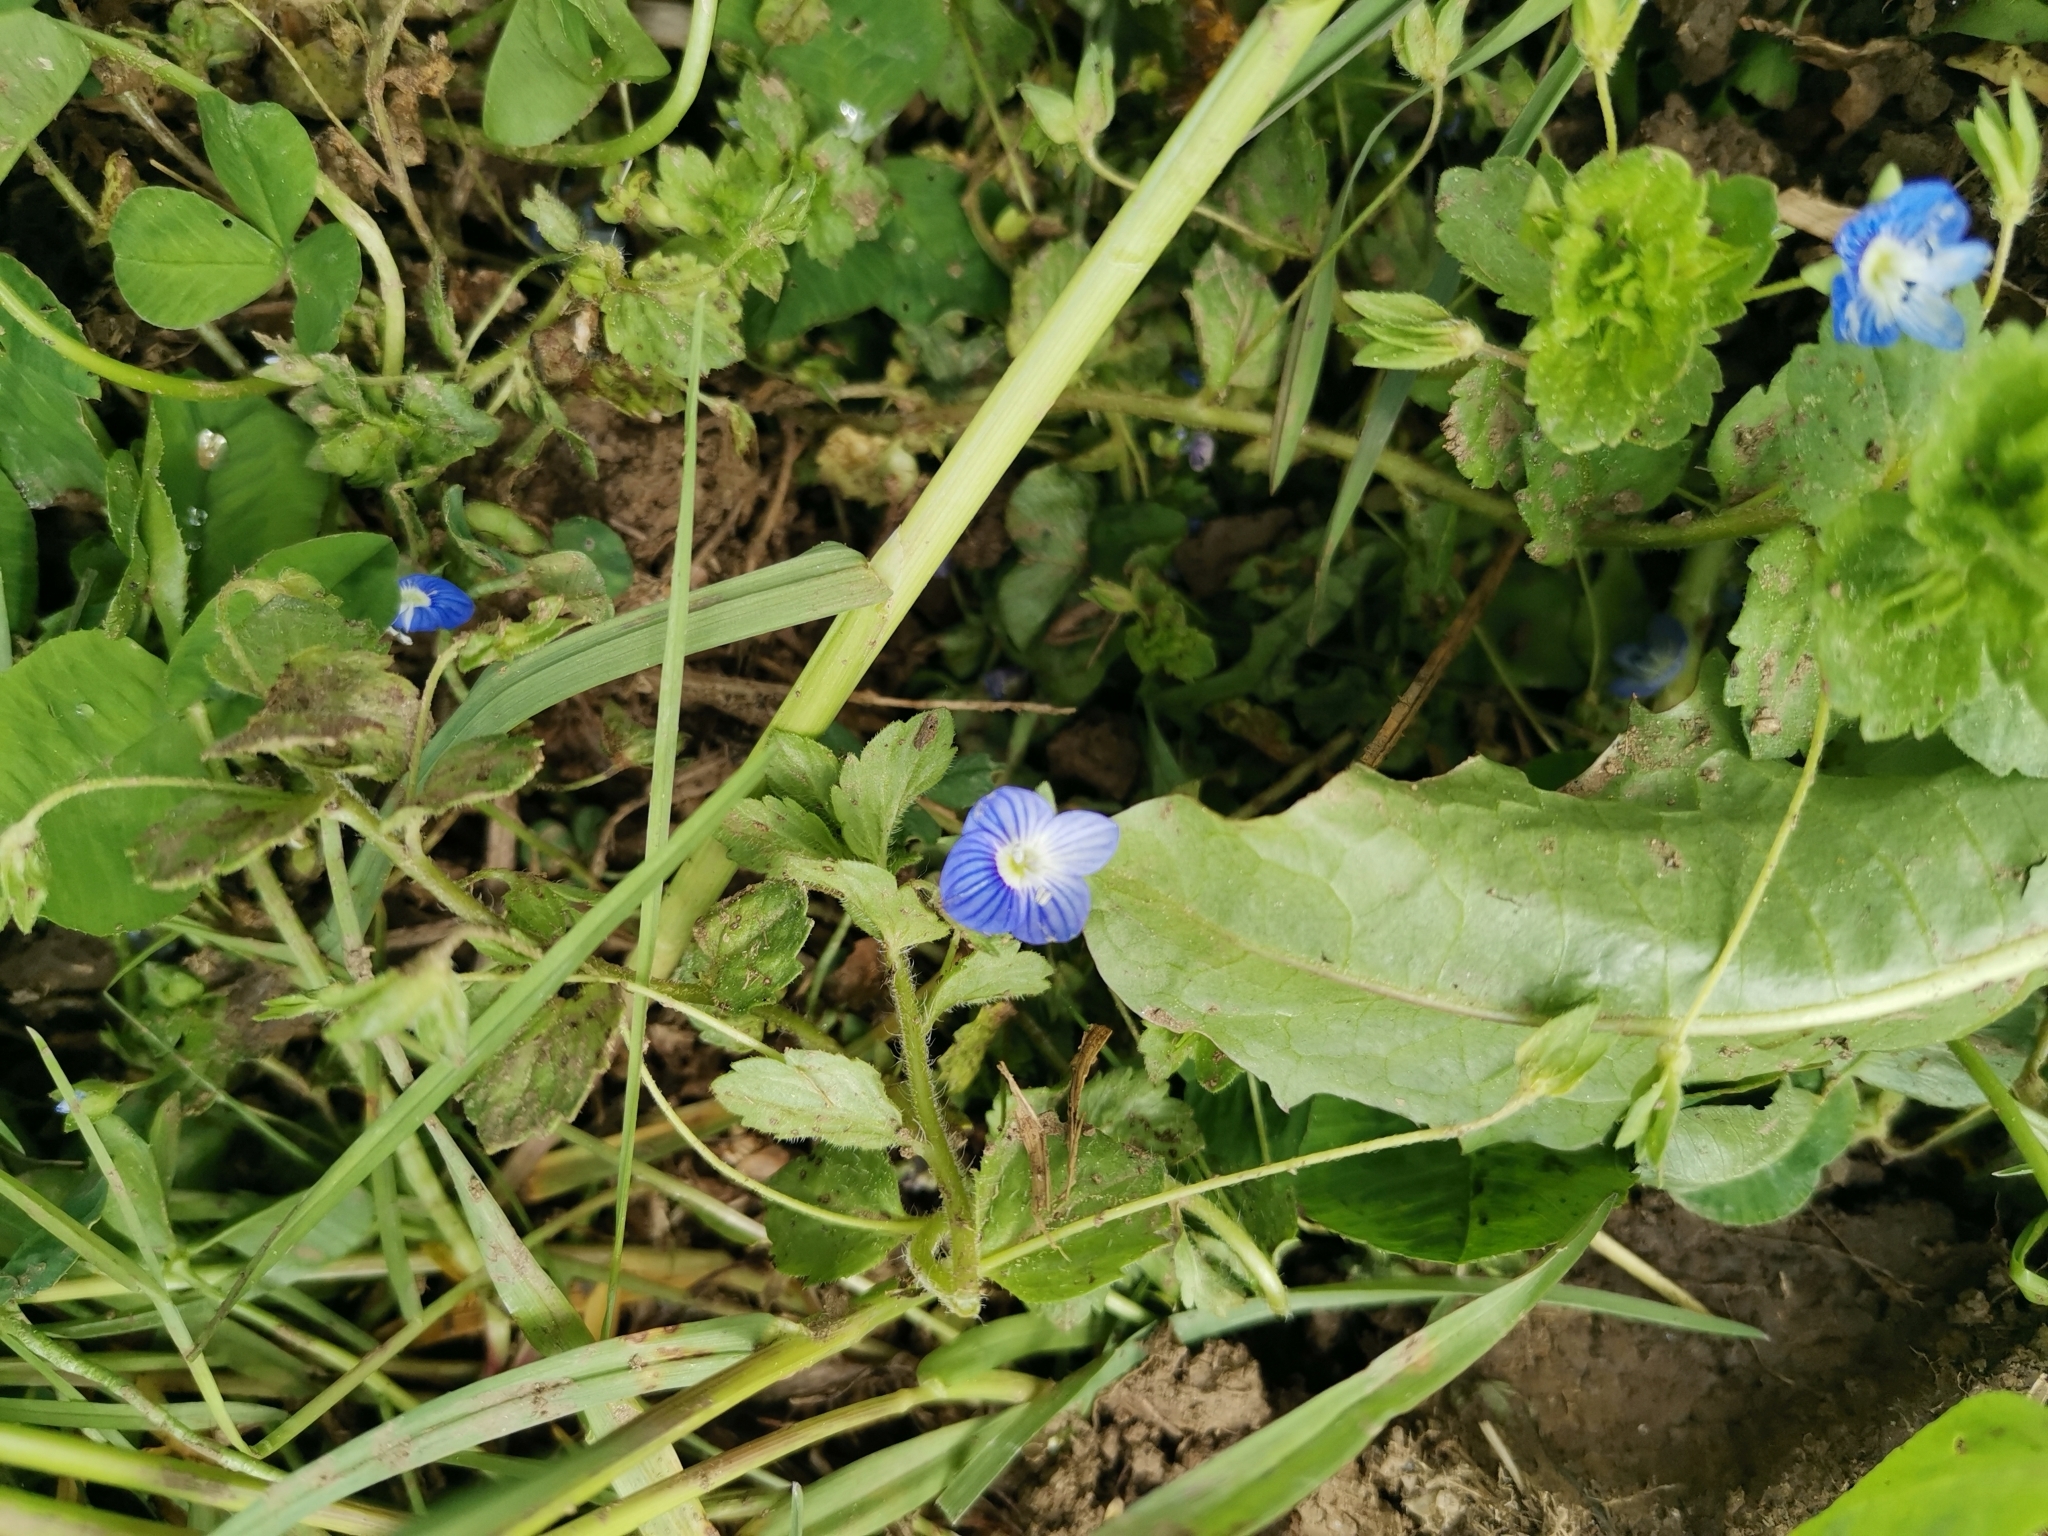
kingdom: Plantae
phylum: Tracheophyta
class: Magnoliopsida
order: Lamiales
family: Plantaginaceae
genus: Veronica
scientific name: Veronica persica
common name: Common field-speedwell
